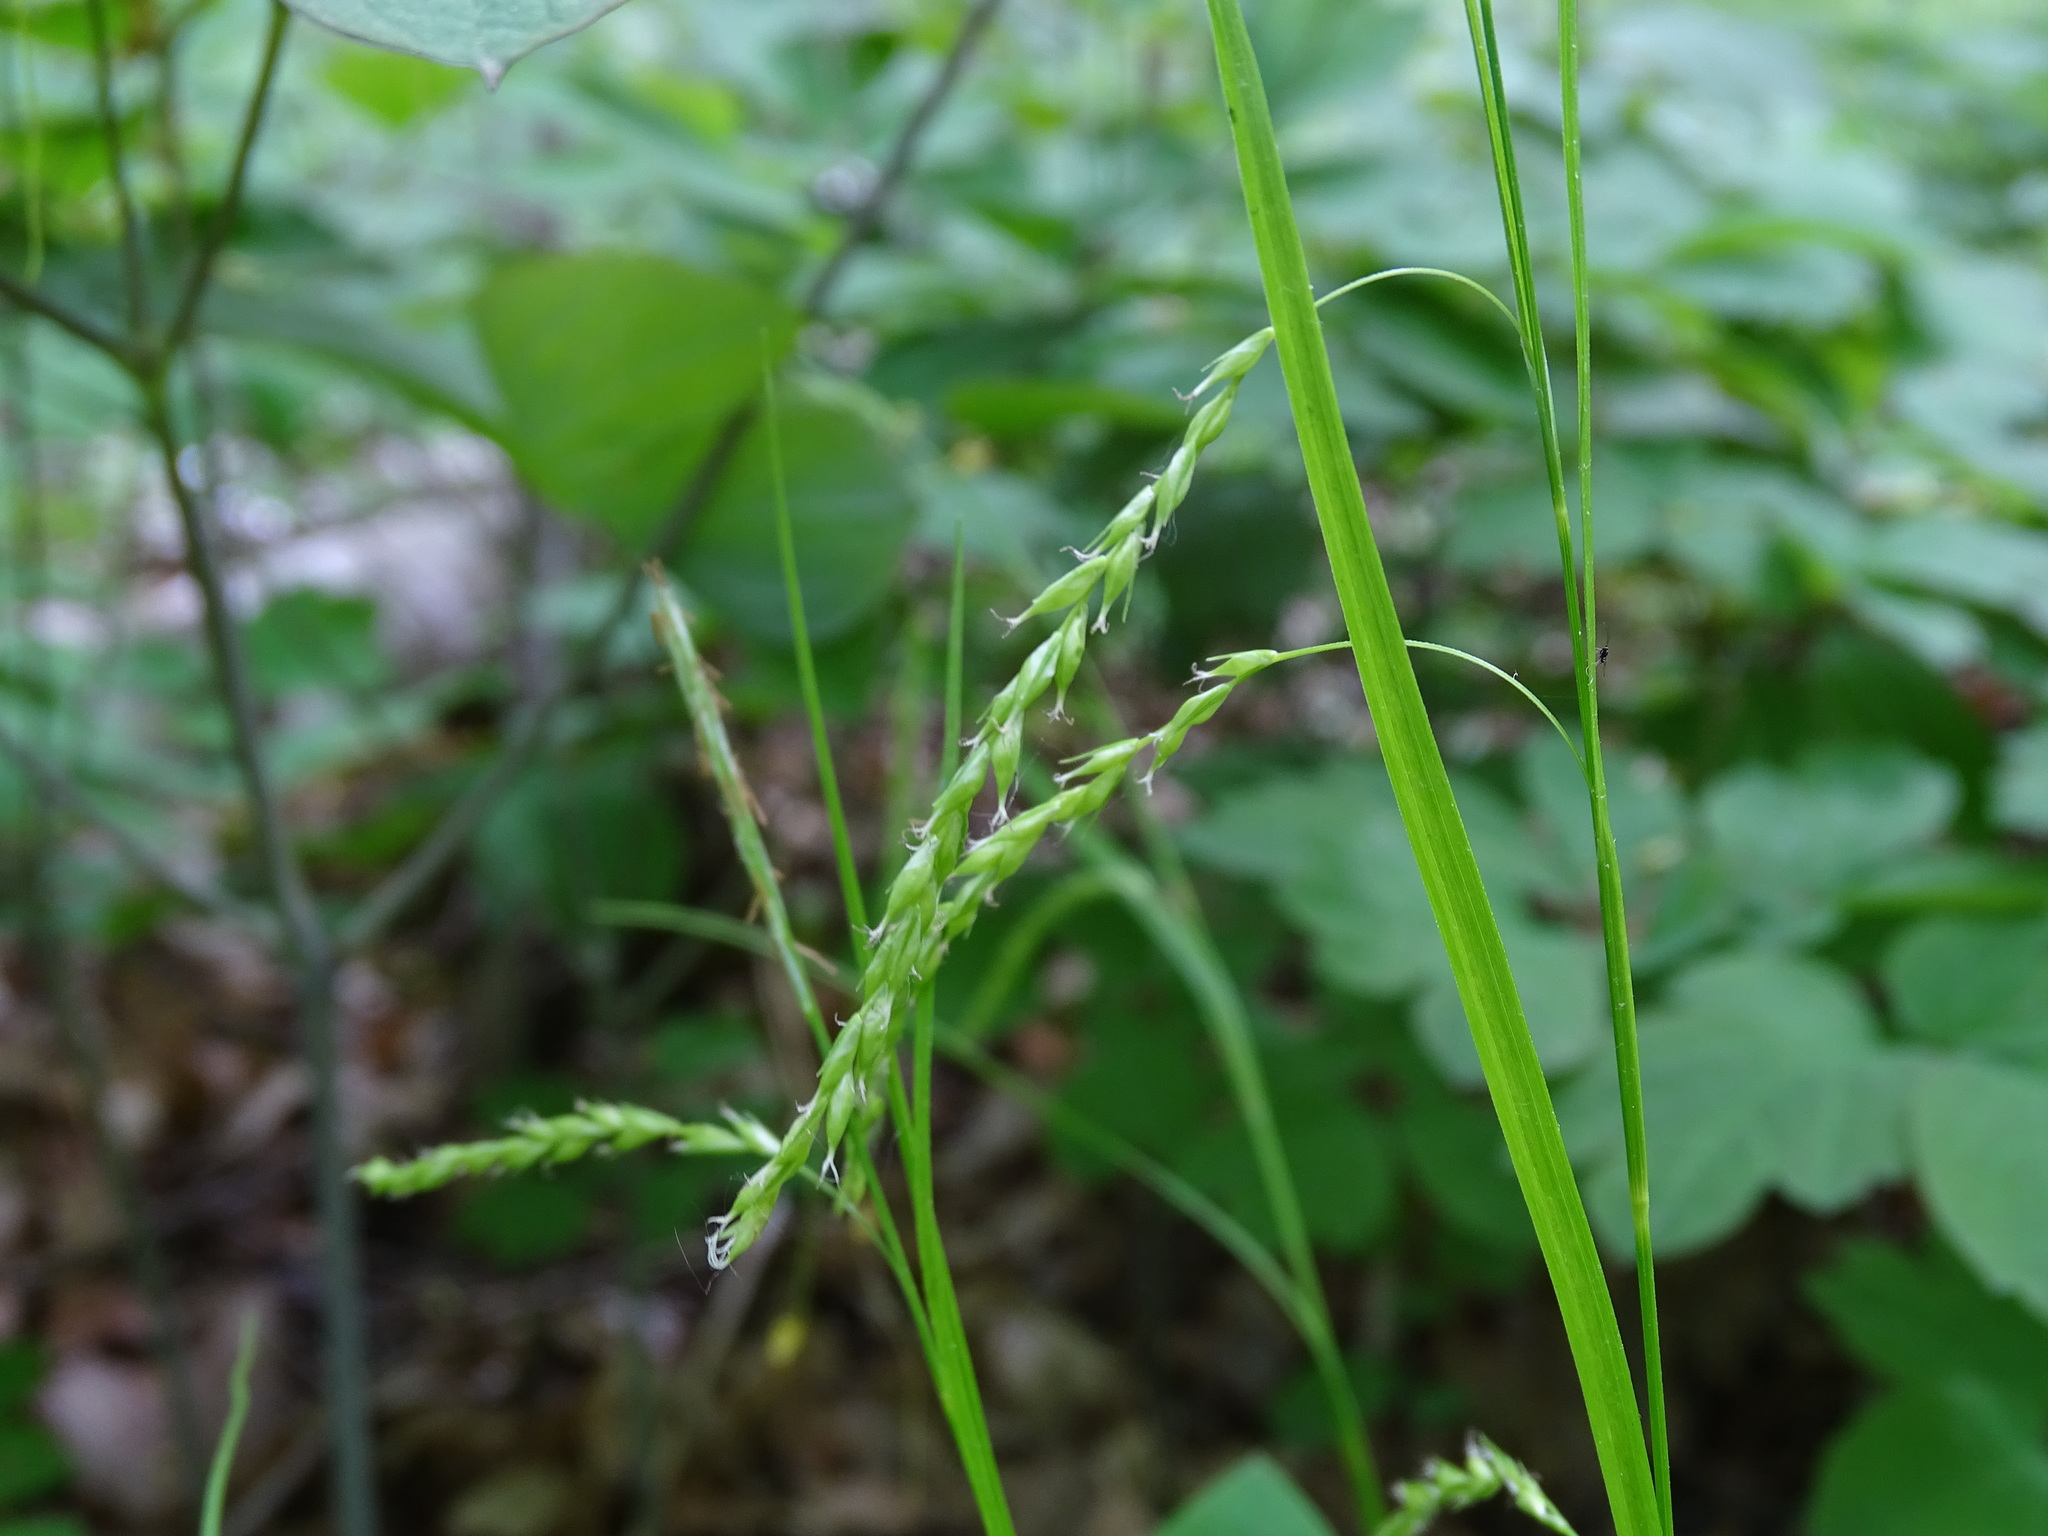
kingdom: Plantae
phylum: Tracheophyta
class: Liliopsida
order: Poales
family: Cyperaceae
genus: Carex
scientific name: Carex arctata
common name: Black sedge
